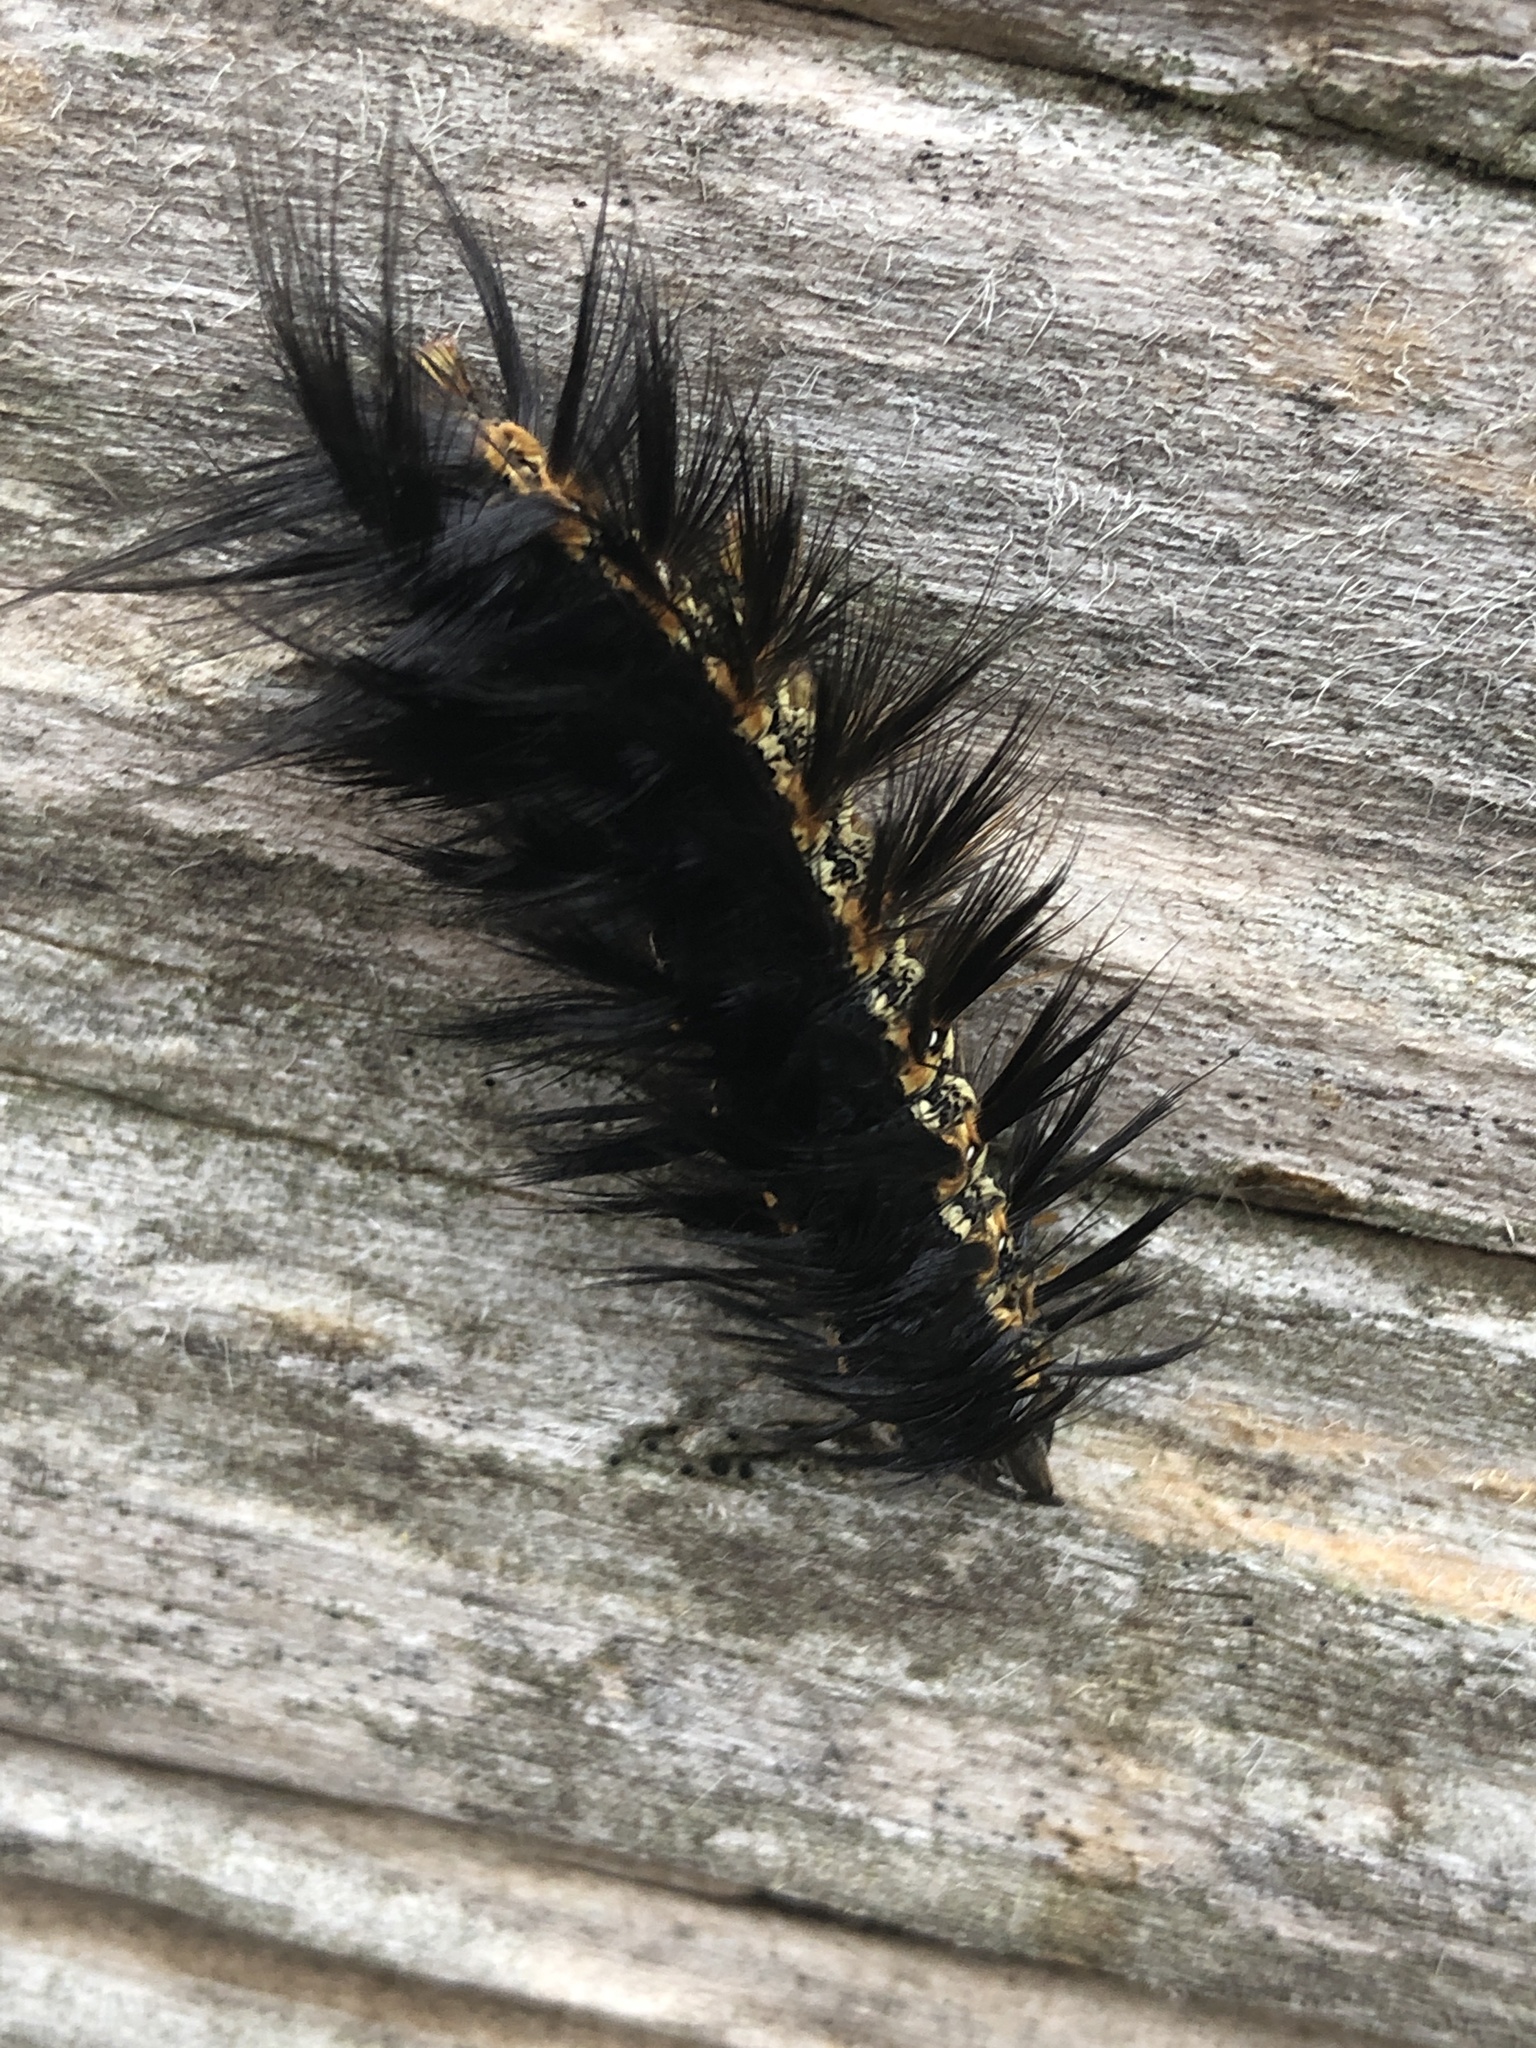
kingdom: Animalia
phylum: Arthropoda
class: Insecta
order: Lepidoptera
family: Erebidae
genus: Estigmene
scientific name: Estigmene acrea
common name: Salt marsh moth
